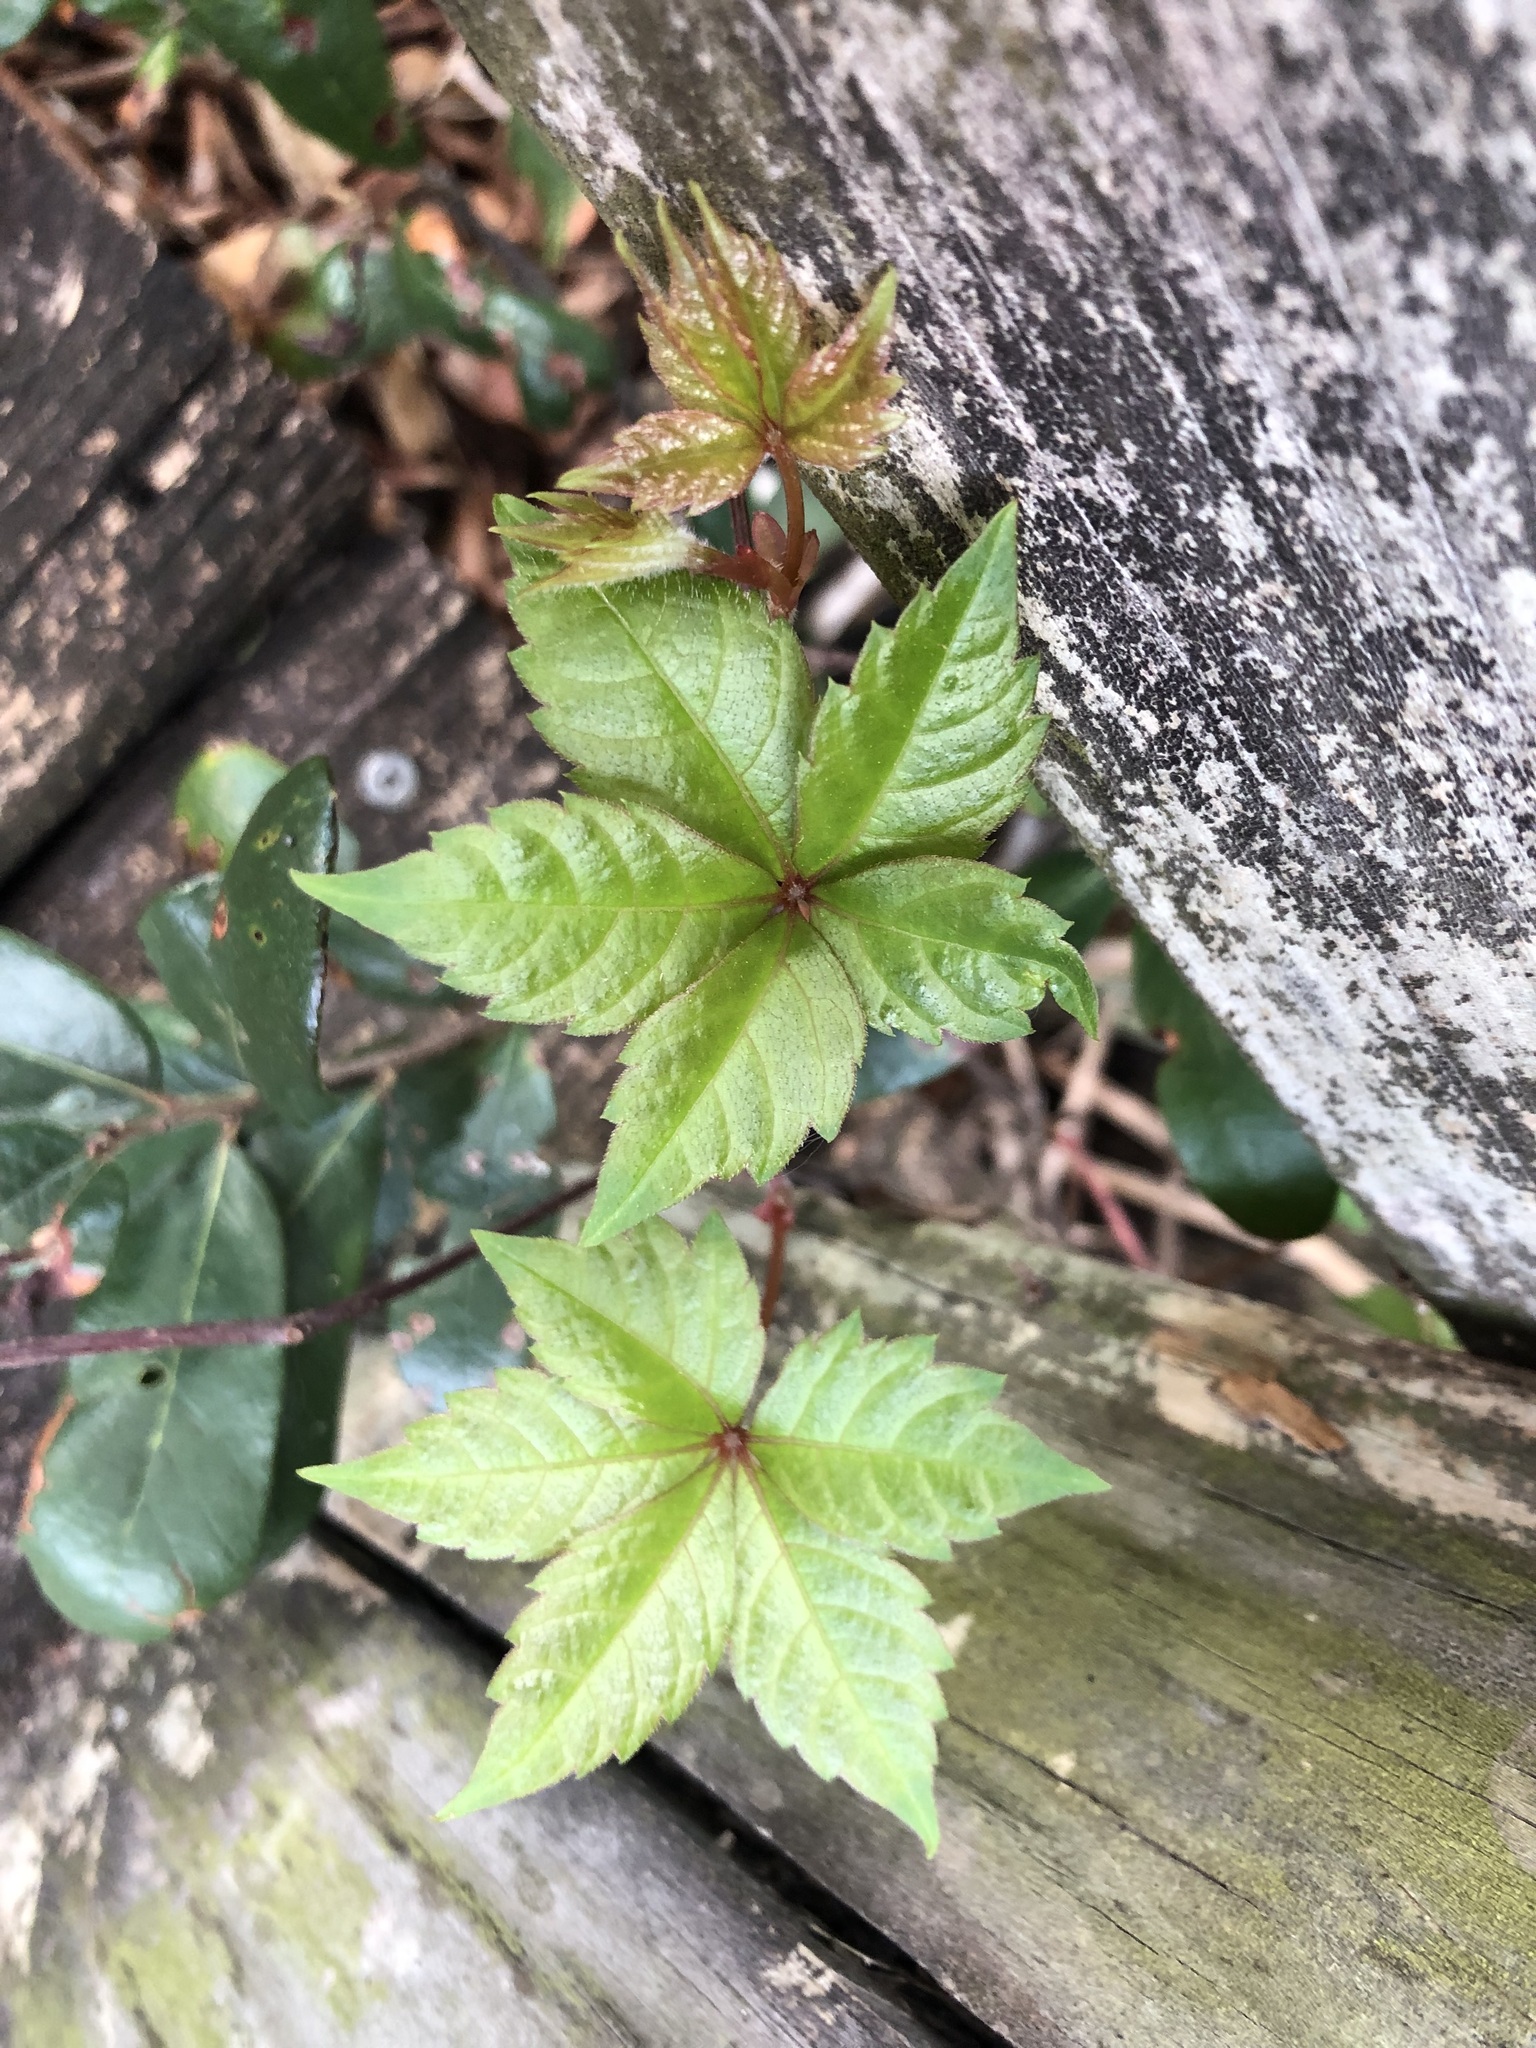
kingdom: Plantae
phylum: Tracheophyta
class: Magnoliopsida
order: Vitales
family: Vitaceae
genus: Parthenocissus
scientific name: Parthenocissus quinquefolia
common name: Virginia-creeper
